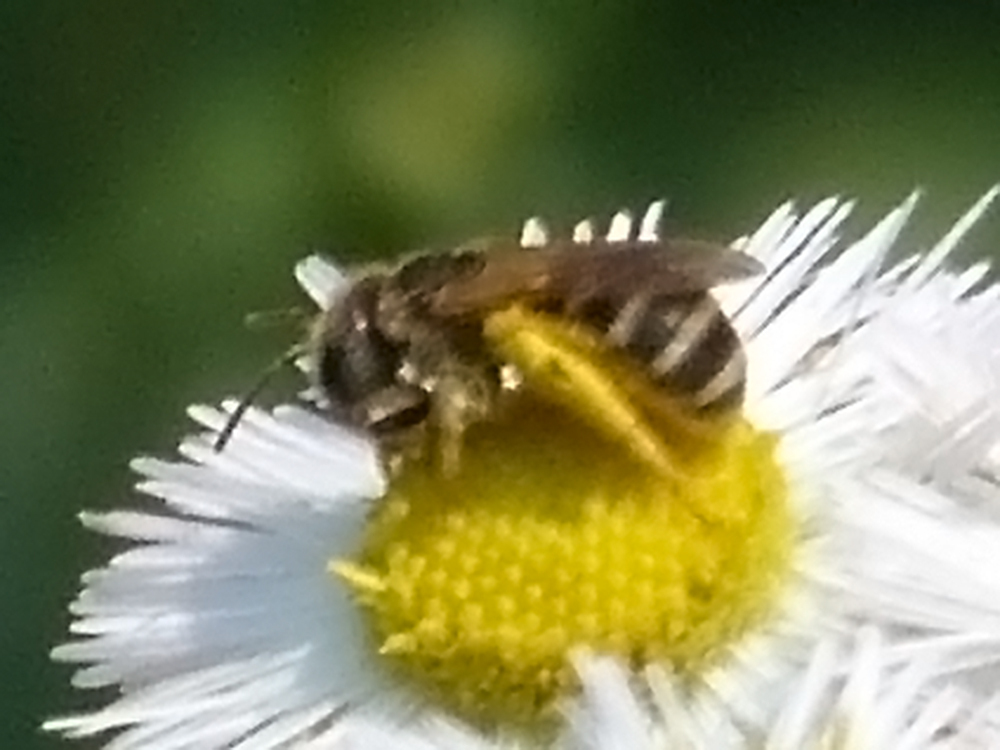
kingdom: Animalia
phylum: Arthropoda
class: Insecta
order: Hymenoptera
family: Halictidae
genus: Halictus
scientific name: Halictus ligatus
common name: Ligated furrow bee
